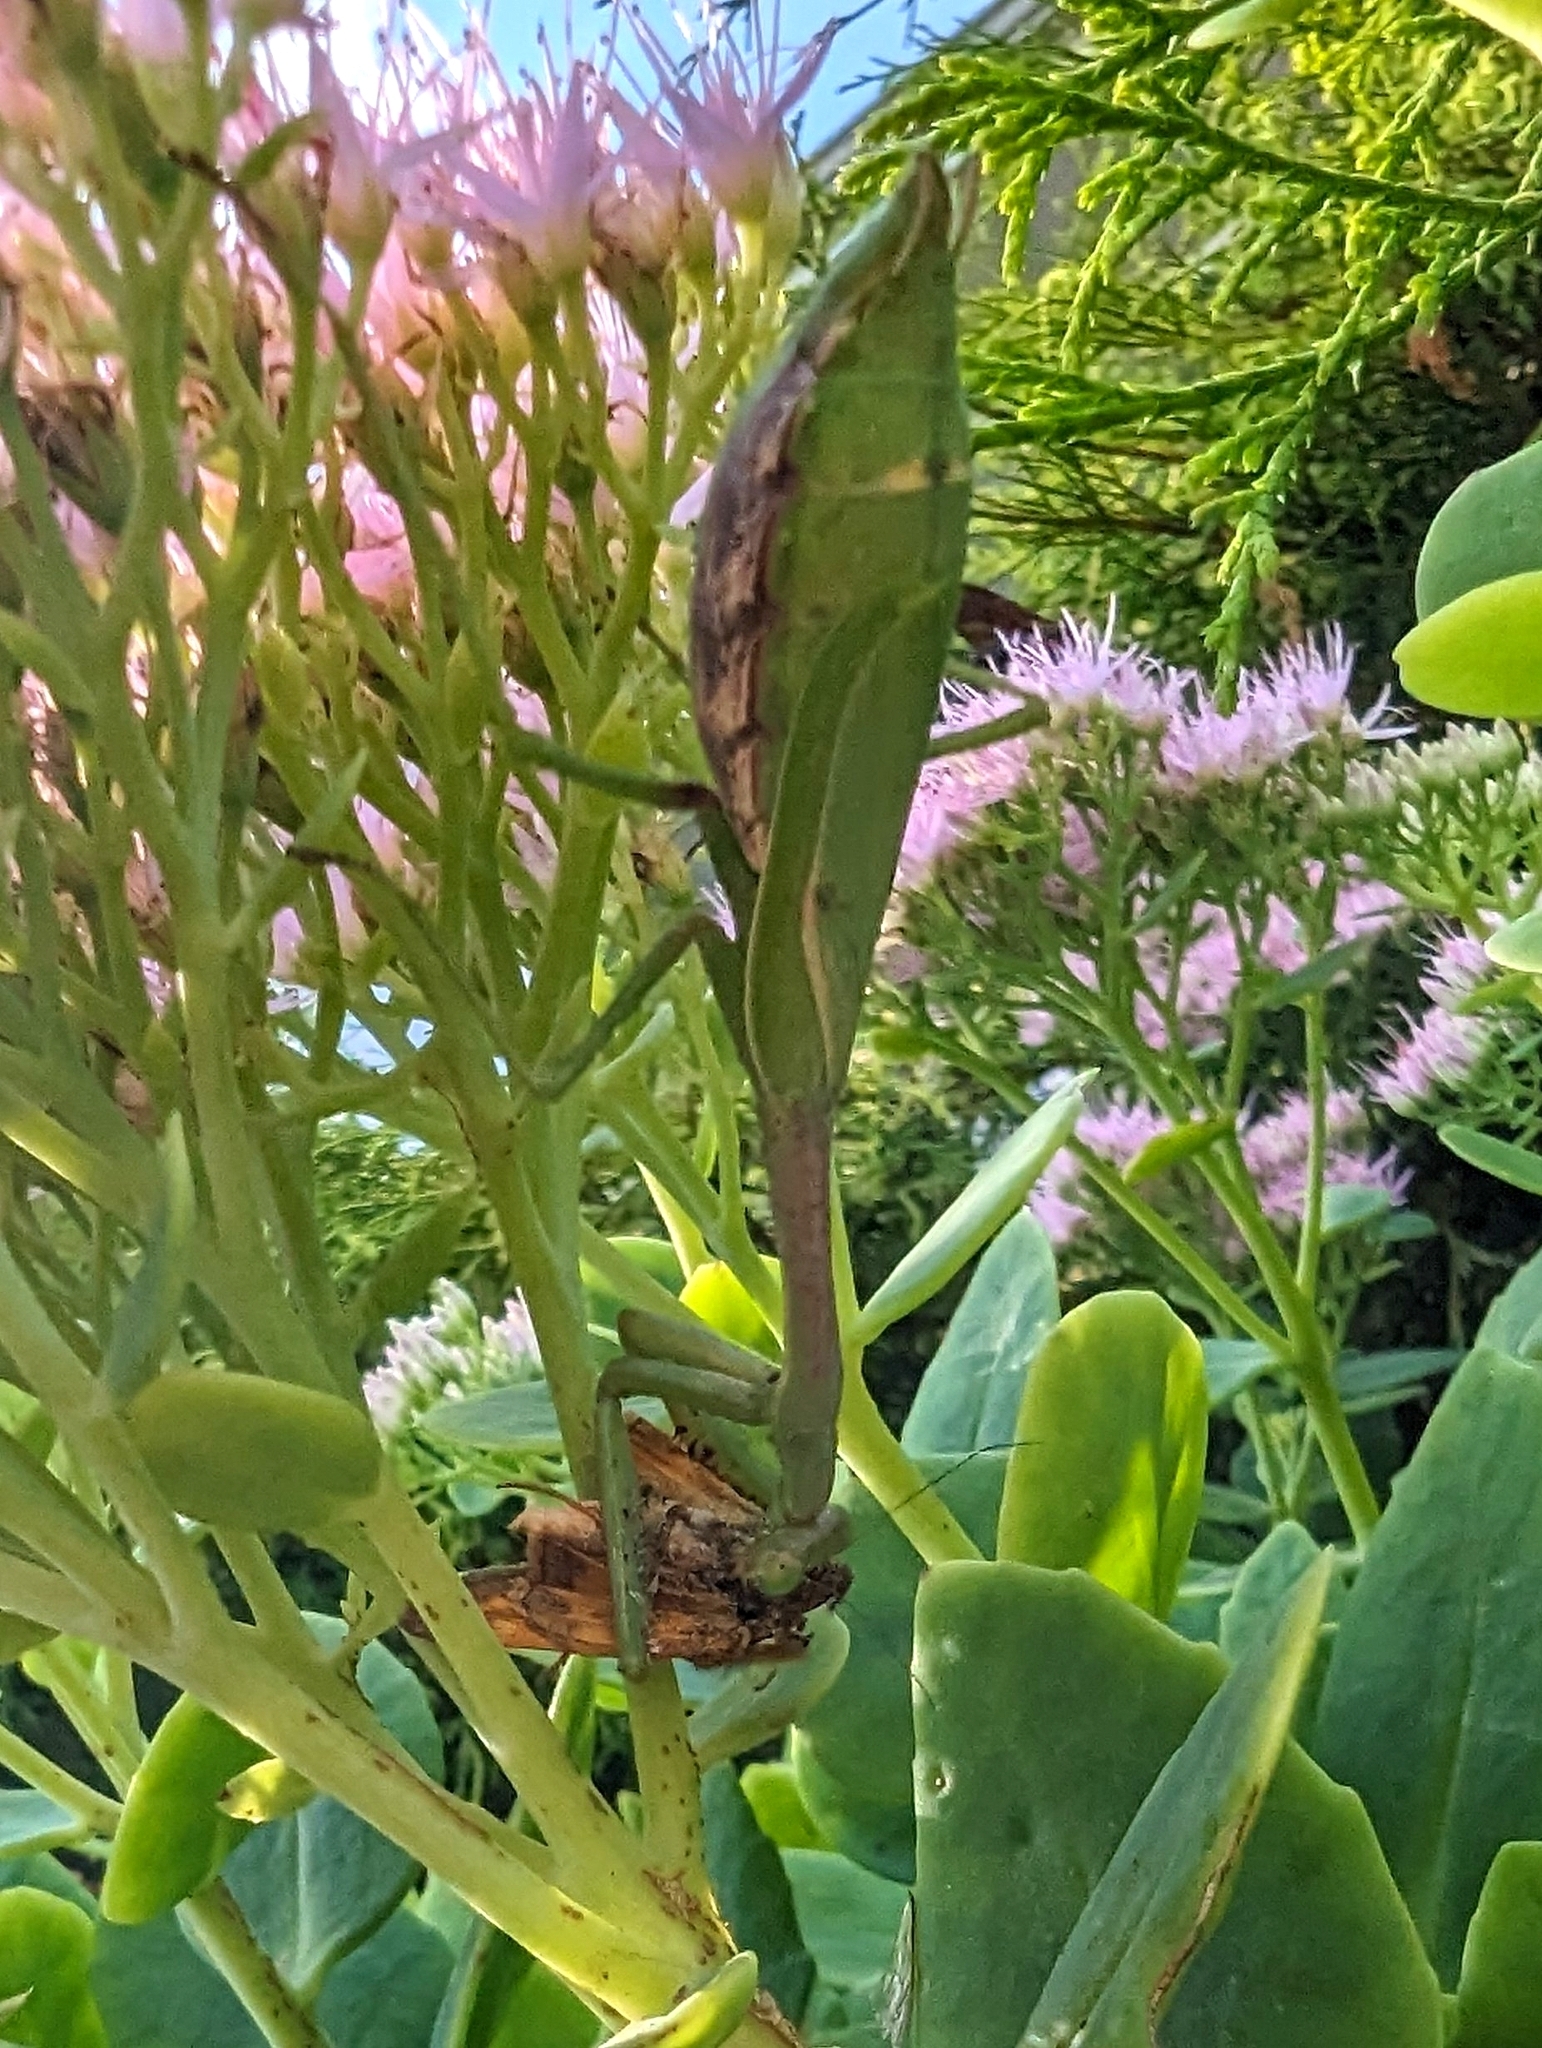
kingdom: Animalia
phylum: Arthropoda
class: Insecta
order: Mantodea
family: Mantidae
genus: Stagmomantis
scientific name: Stagmomantis carolina
